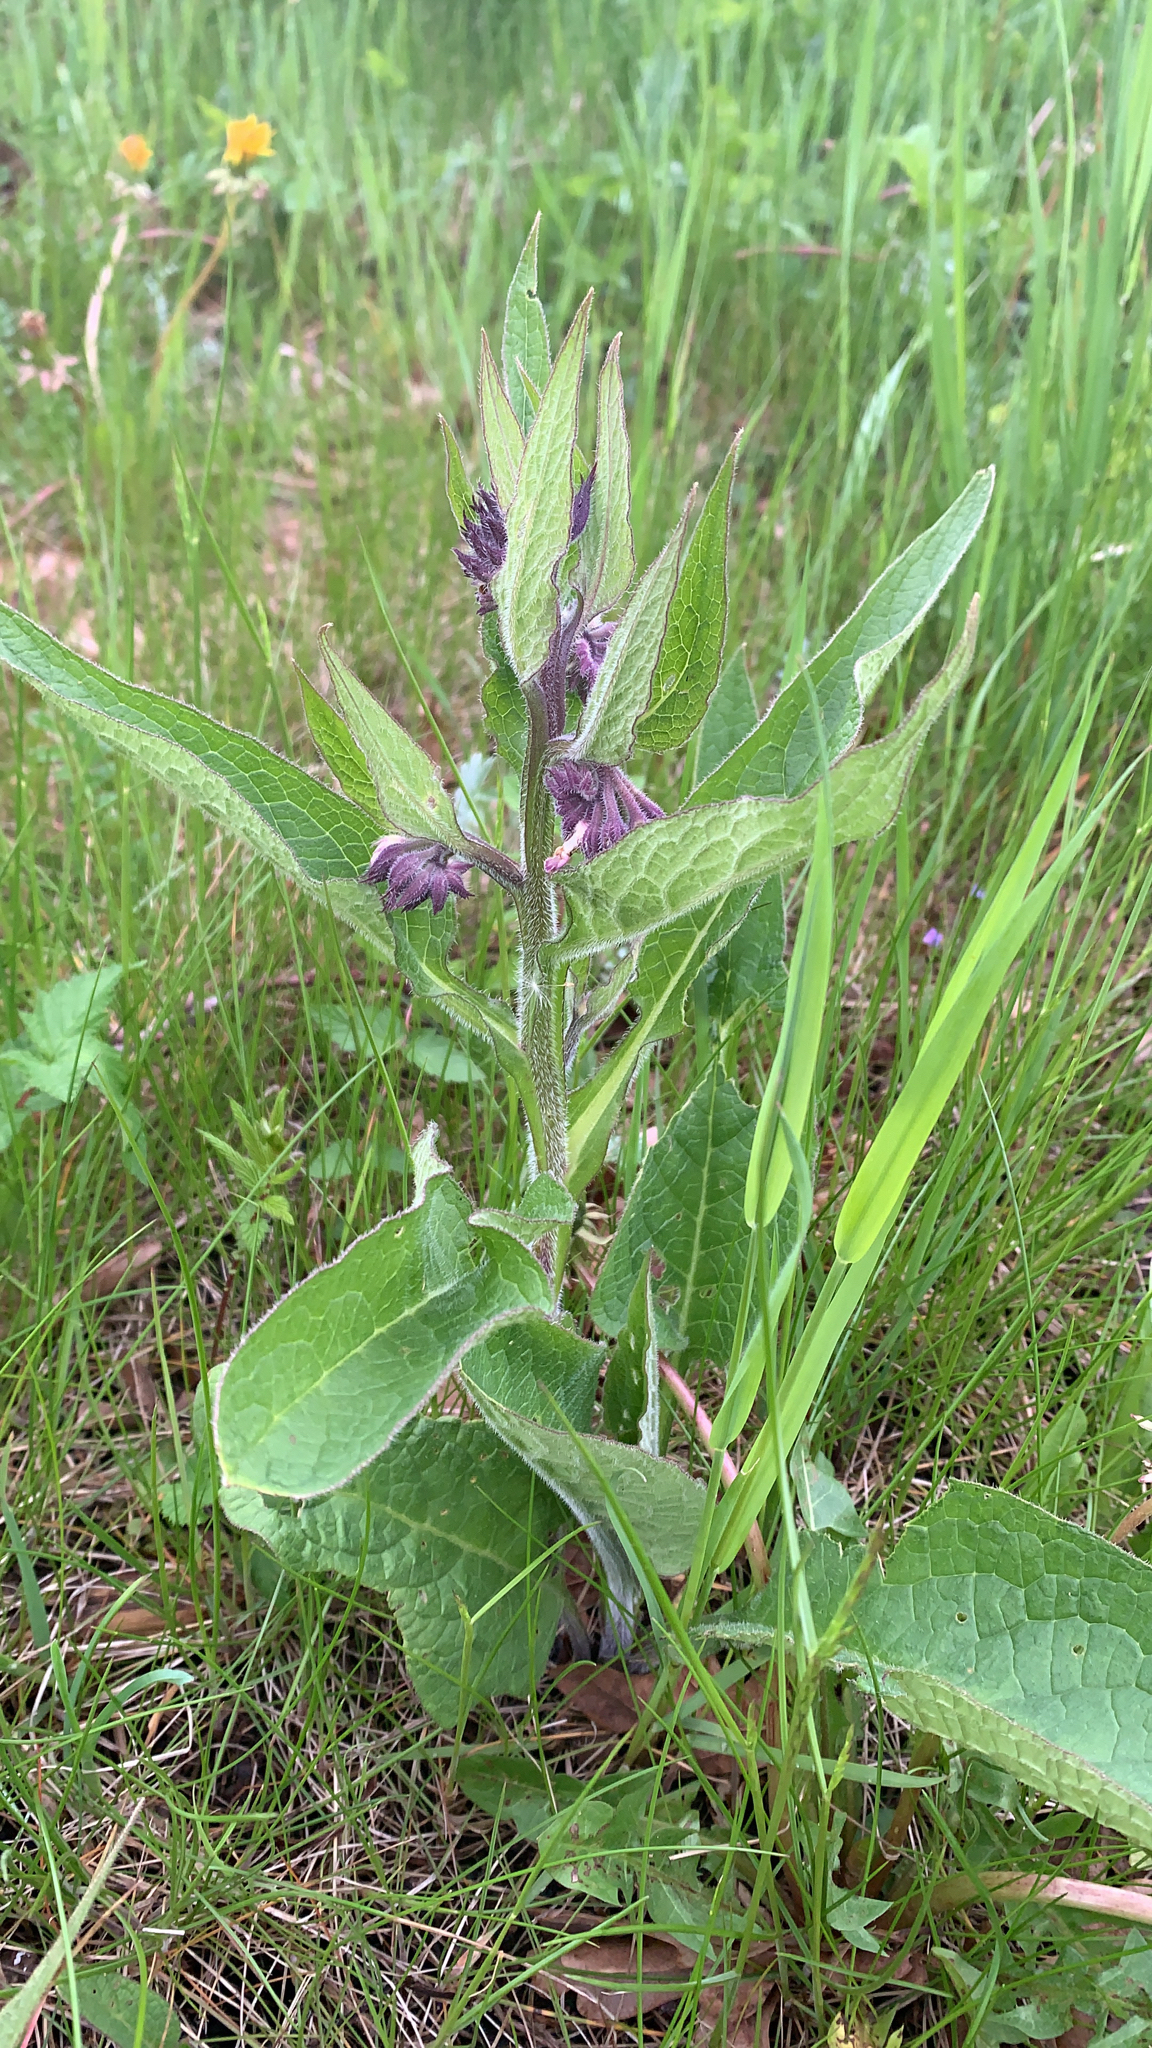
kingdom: Plantae
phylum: Tracheophyta
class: Magnoliopsida
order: Boraginales
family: Boraginaceae
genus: Symphytum
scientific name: Symphytum officinale
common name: Common comfrey
